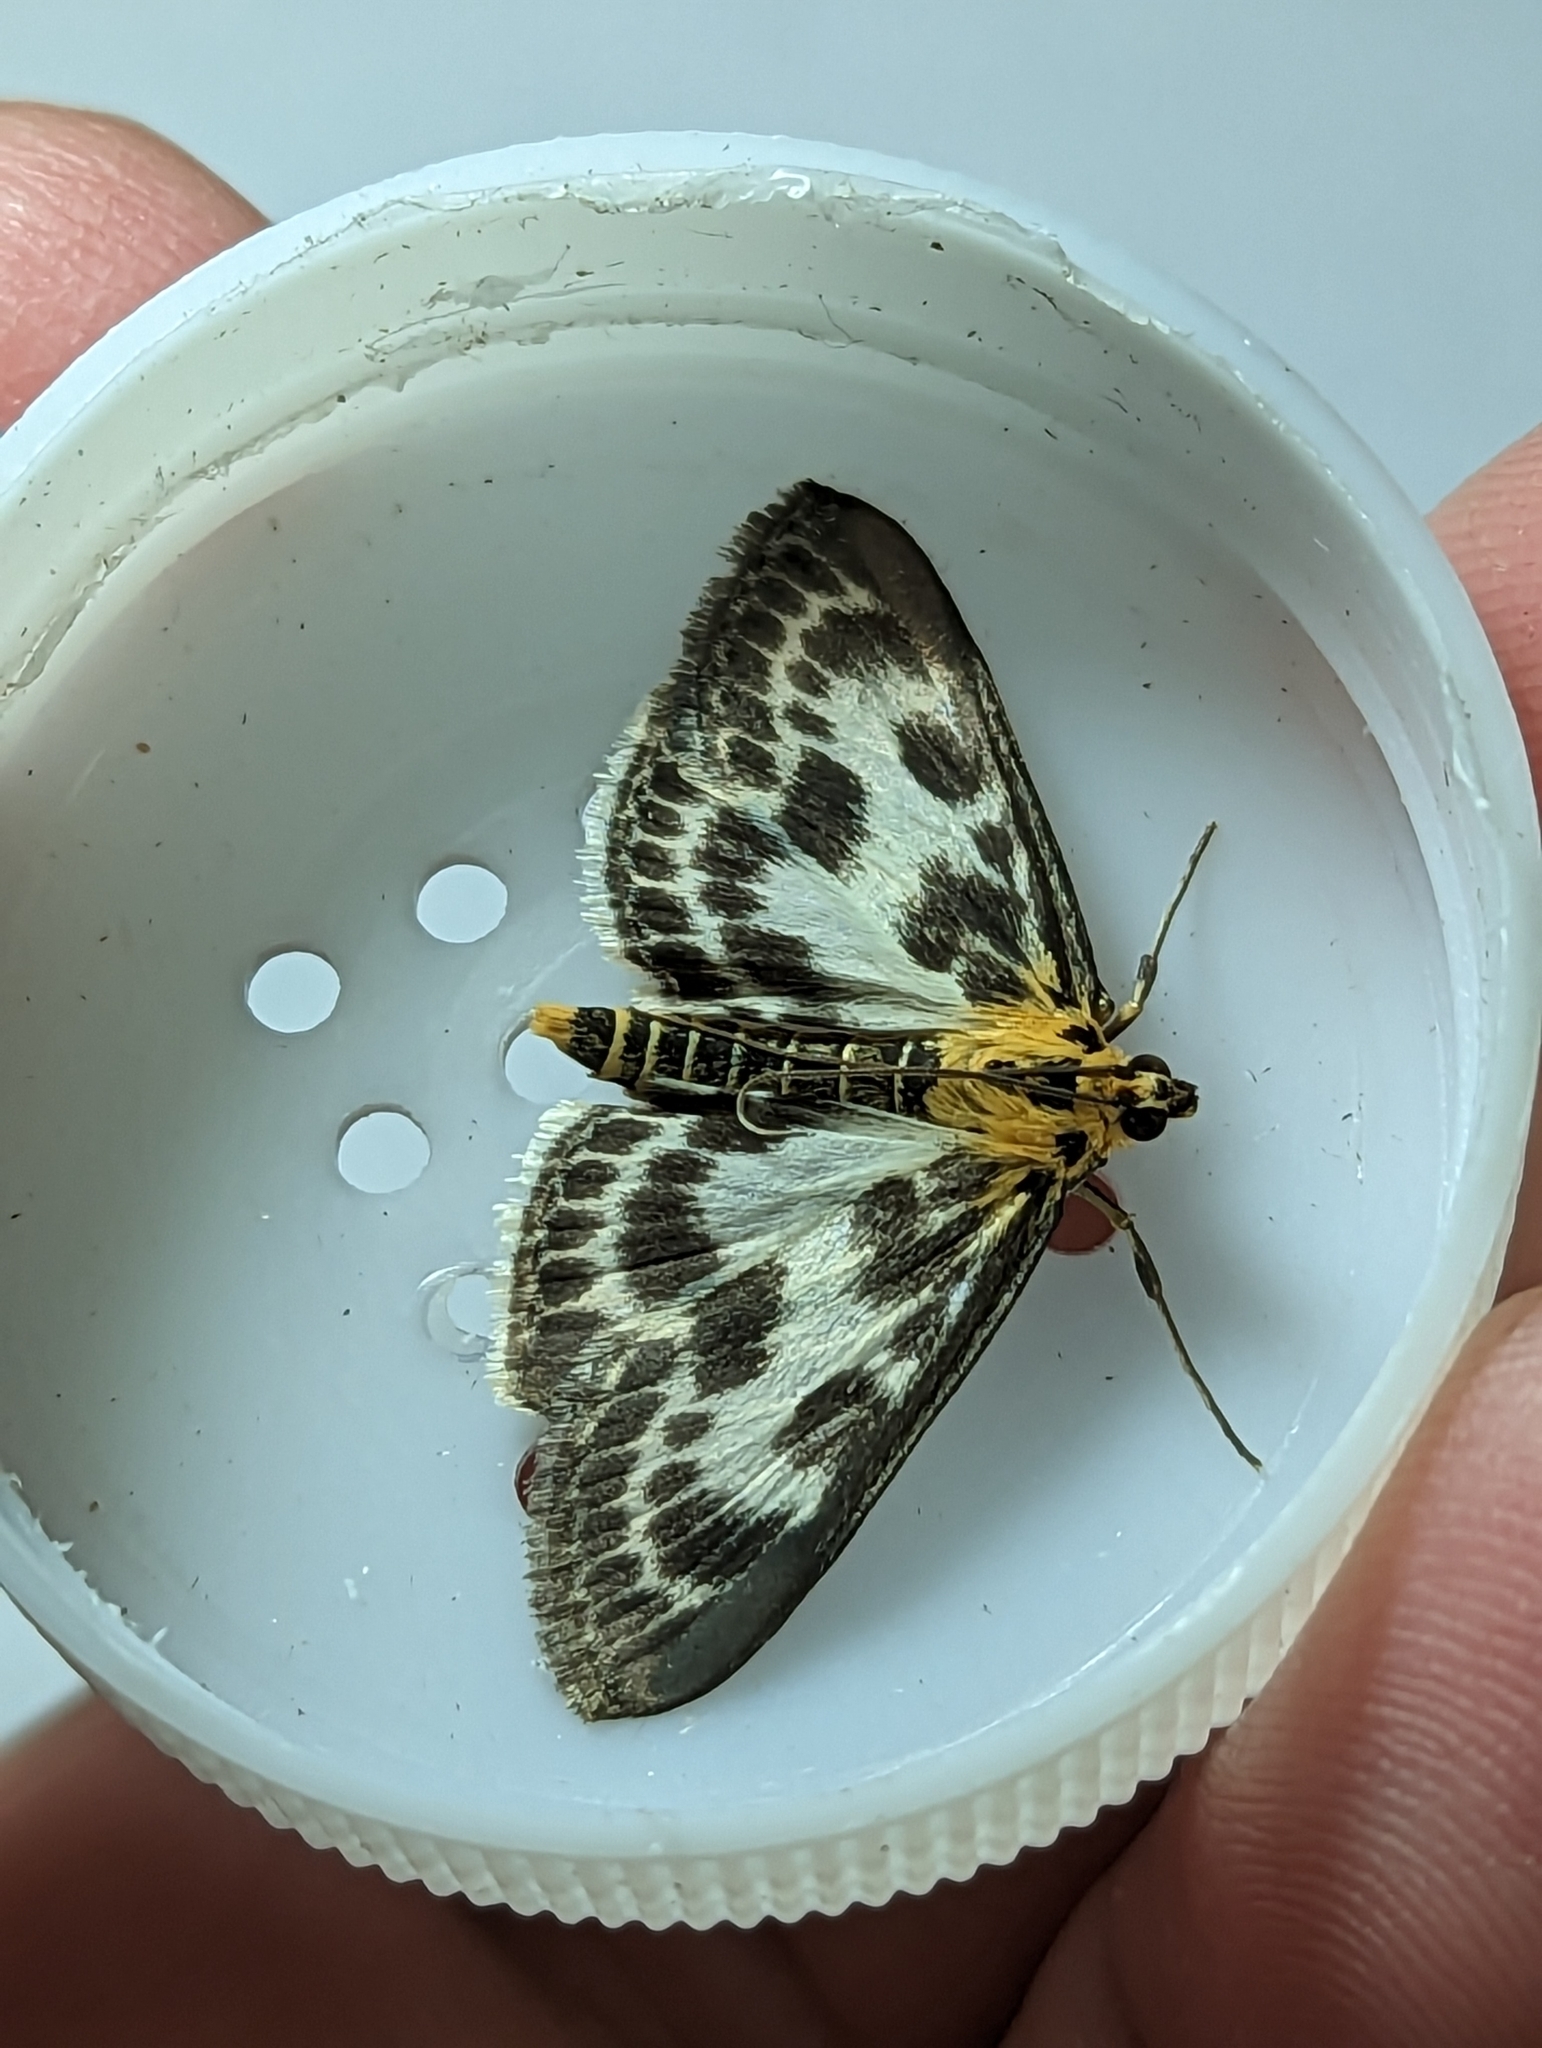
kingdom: Animalia
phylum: Arthropoda
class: Insecta
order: Lepidoptera
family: Crambidae
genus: Anania
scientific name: Anania hortulata
